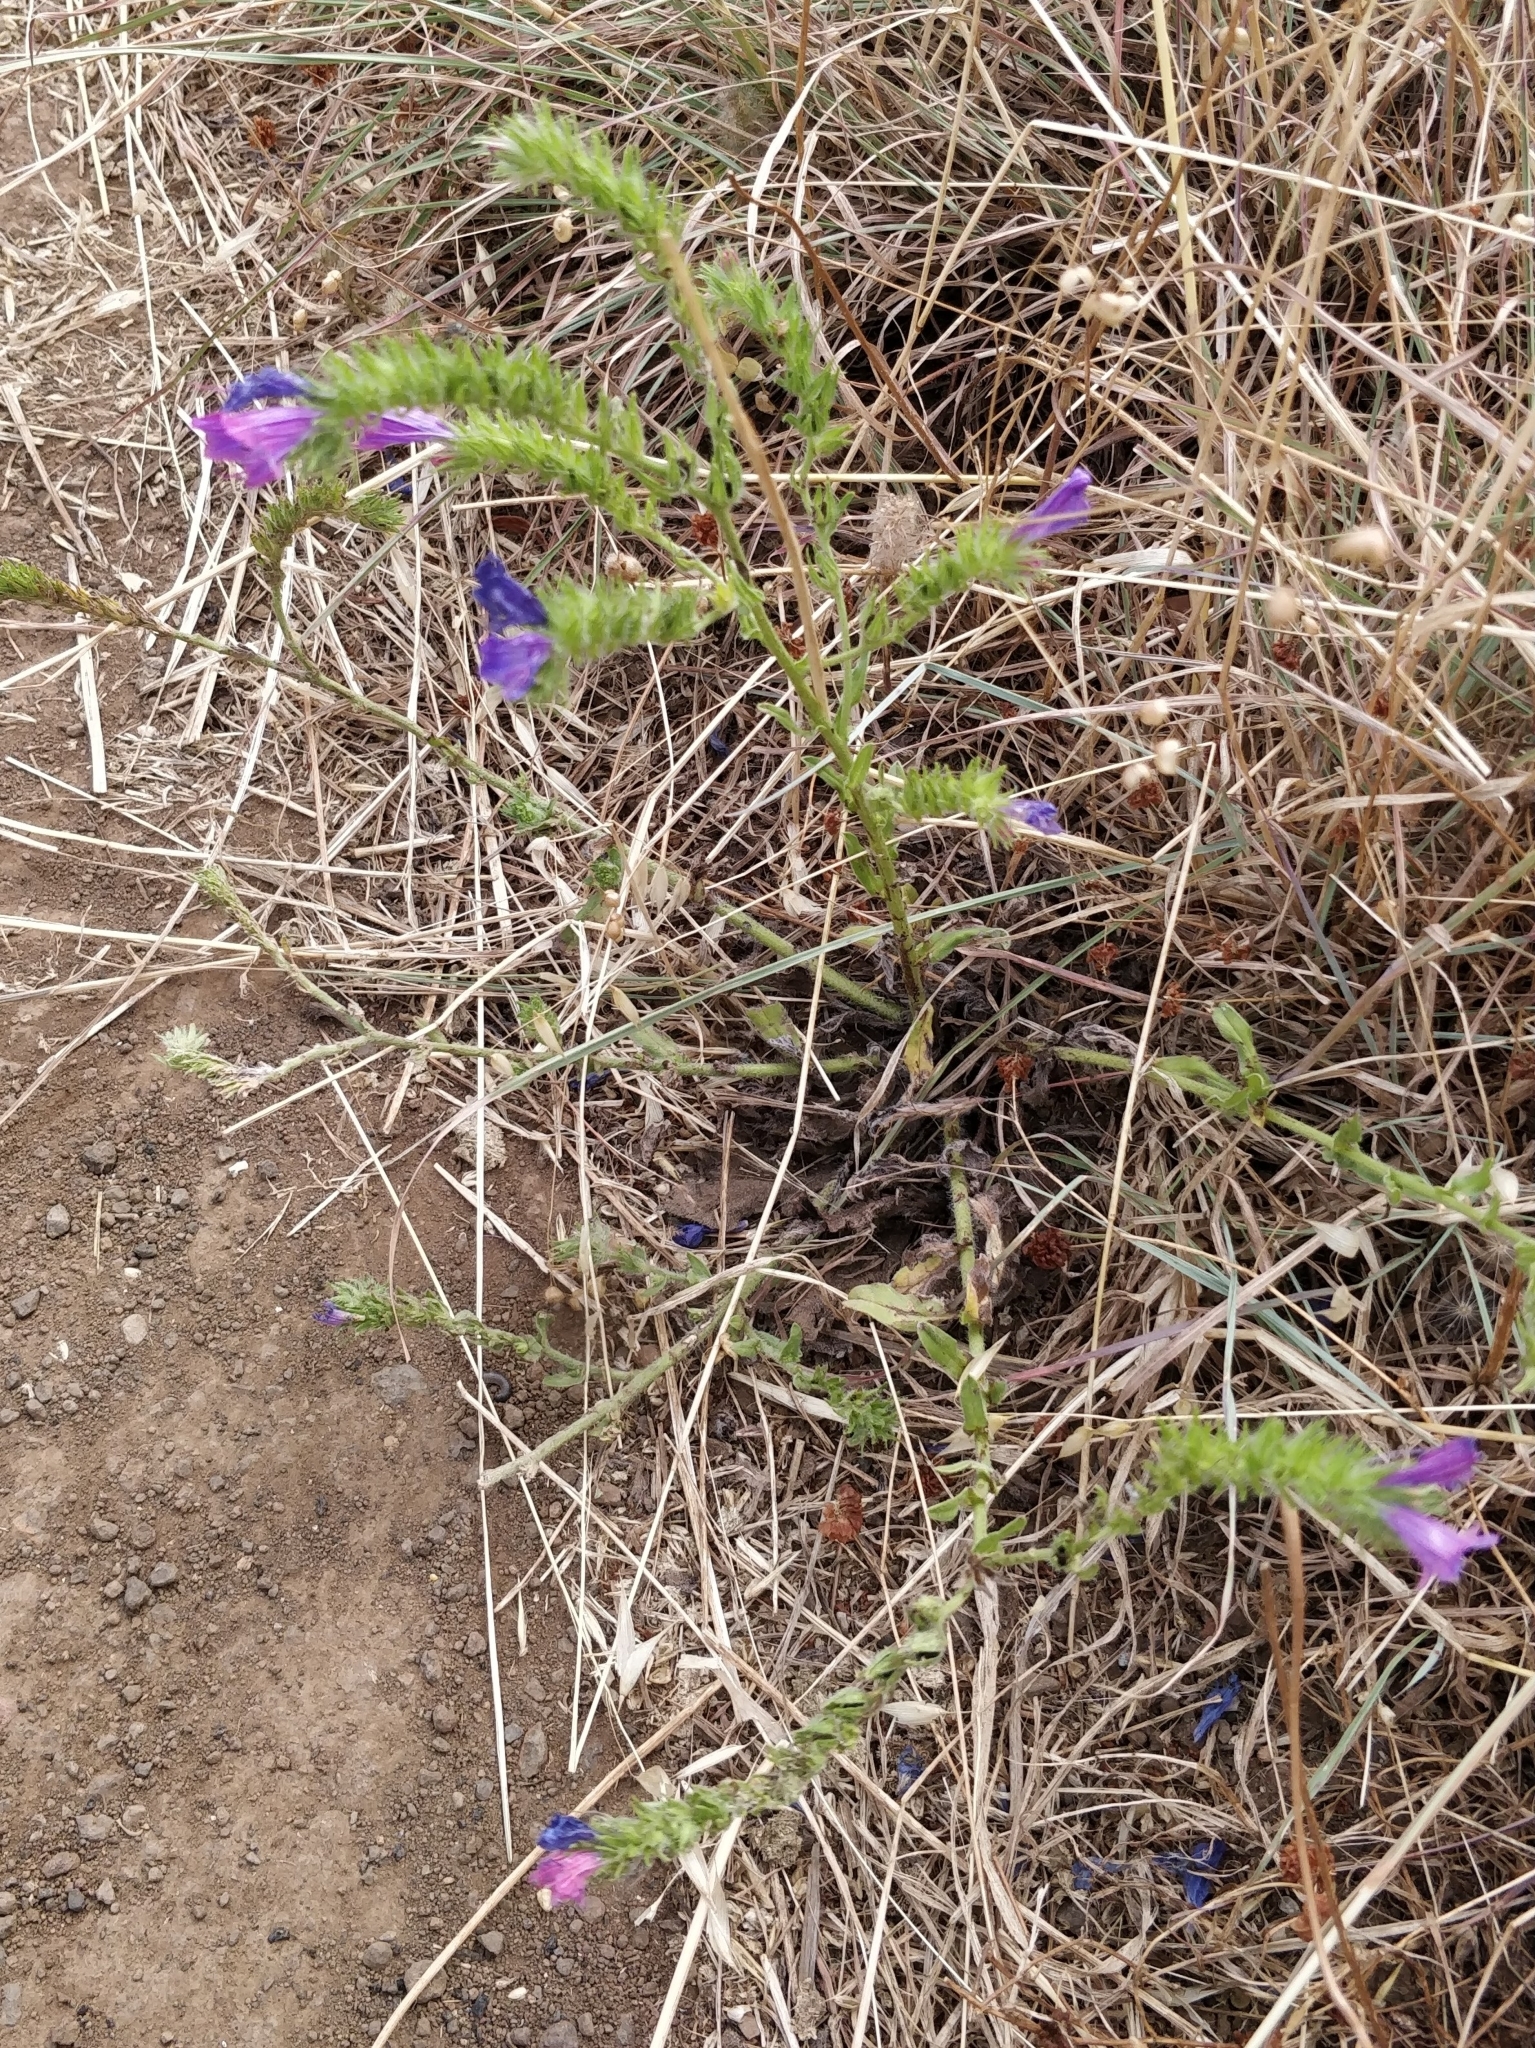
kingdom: Plantae
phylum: Tracheophyta
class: Magnoliopsida
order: Boraginales
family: Boraginaceae
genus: Echium
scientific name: Echium plantagineum
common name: Purple viper's-bugloss
